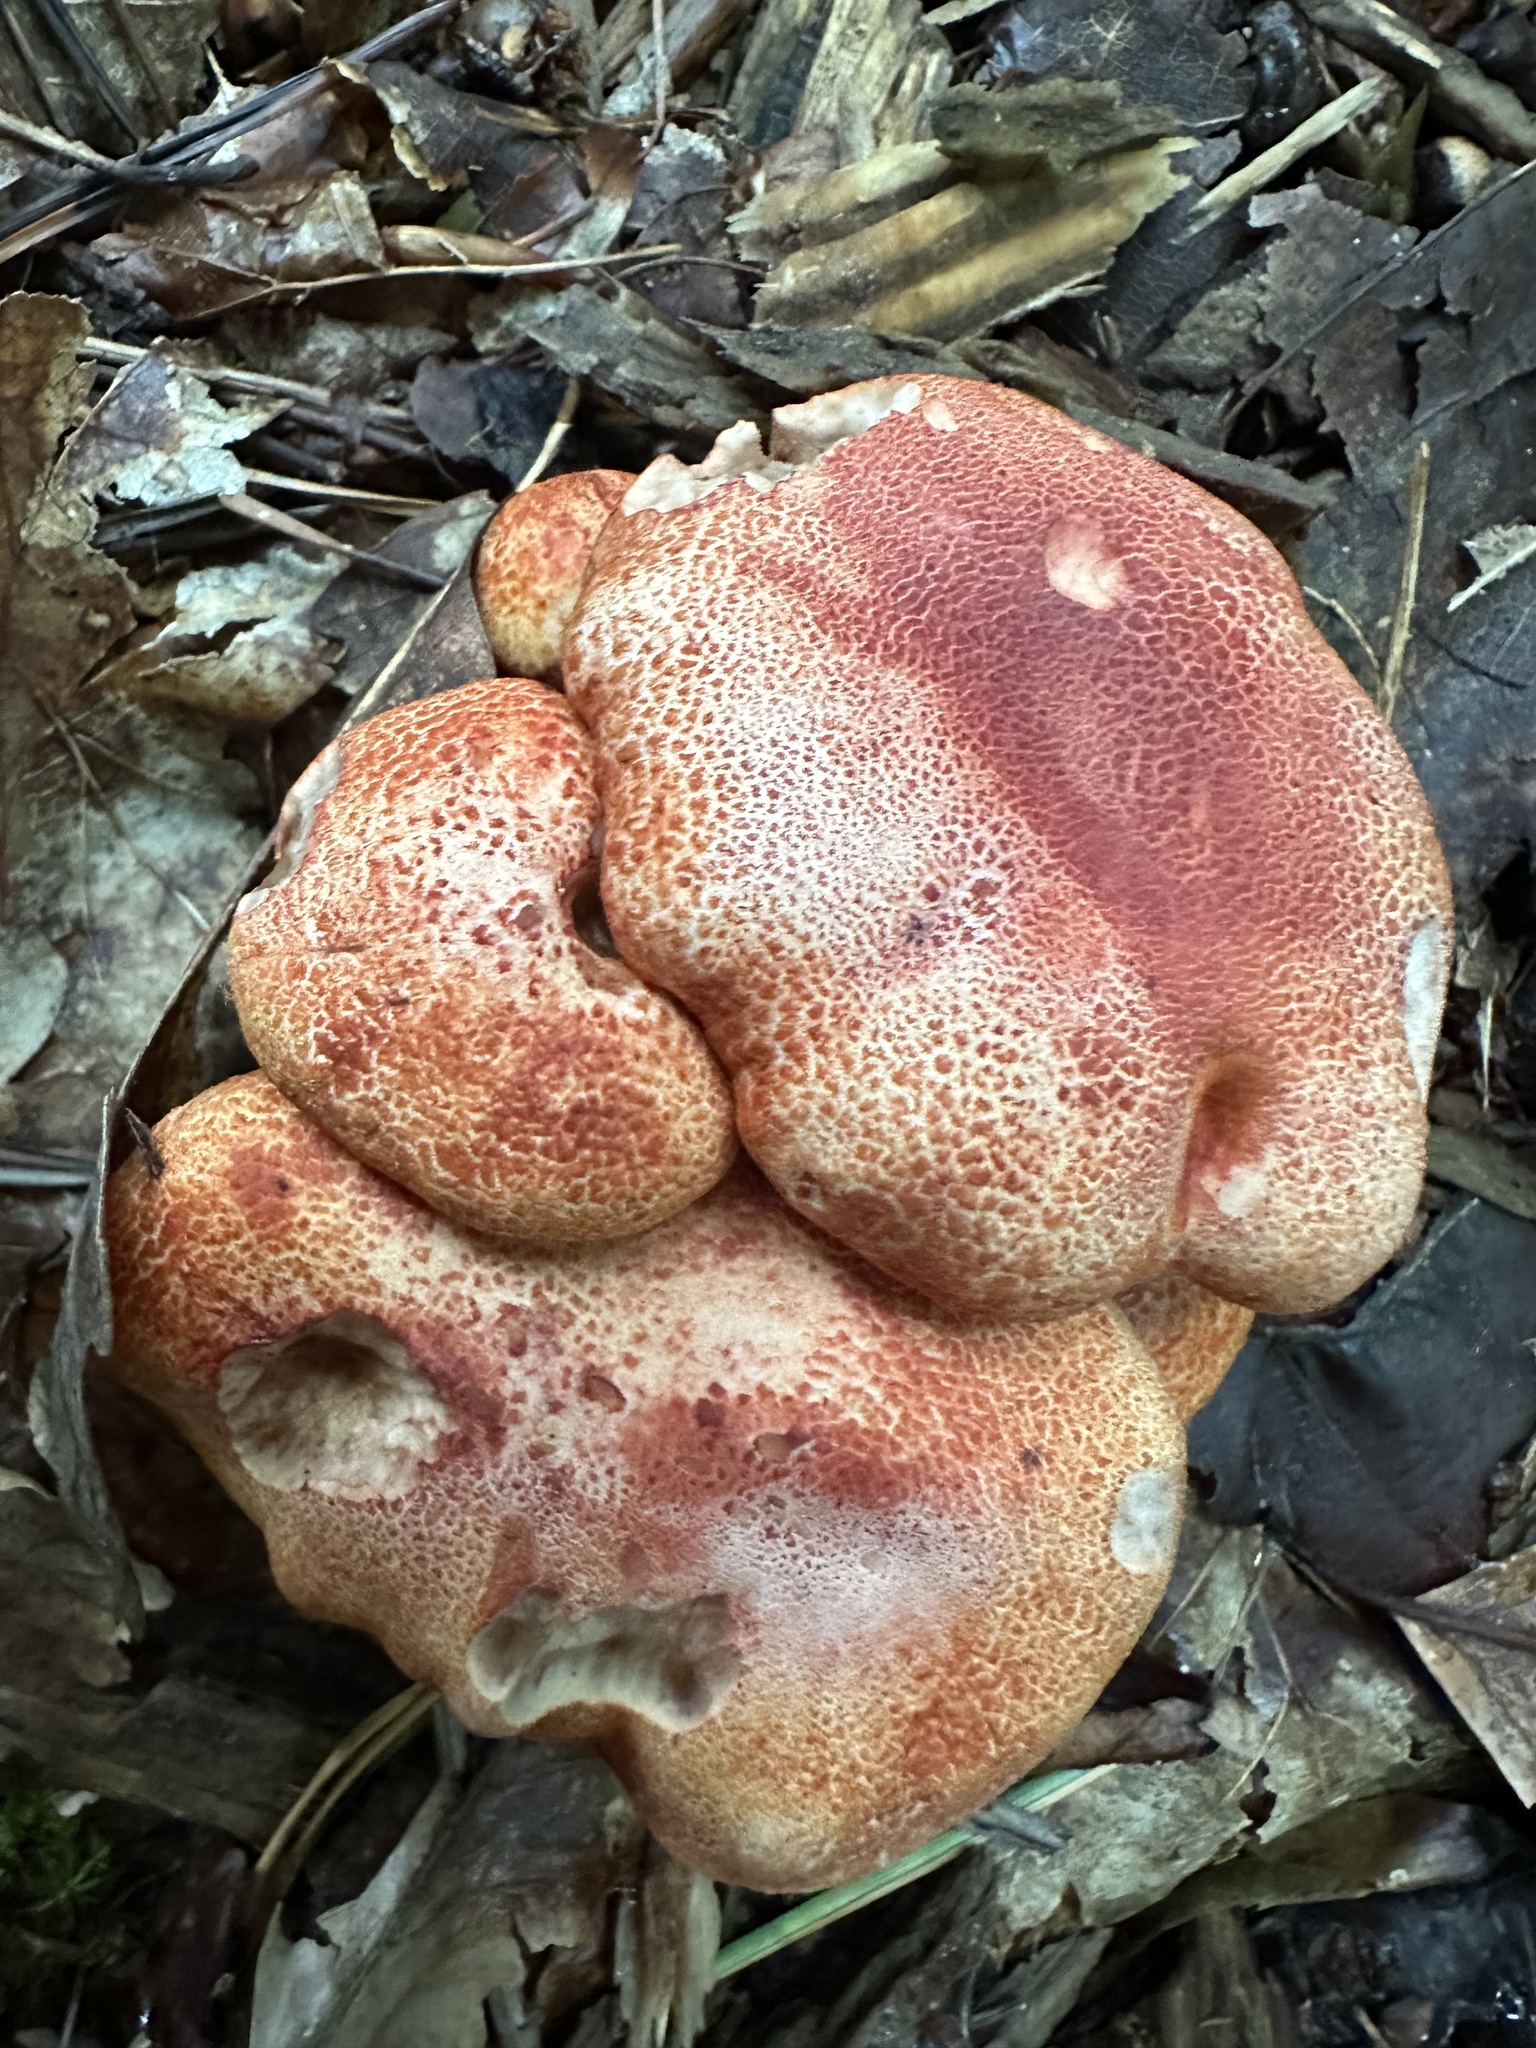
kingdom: Fungi
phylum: Basidiomycota
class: Agaricomycetes
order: Agaricales
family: Cortinariaceae
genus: Cortinarius
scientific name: Cortinarius bolaris
